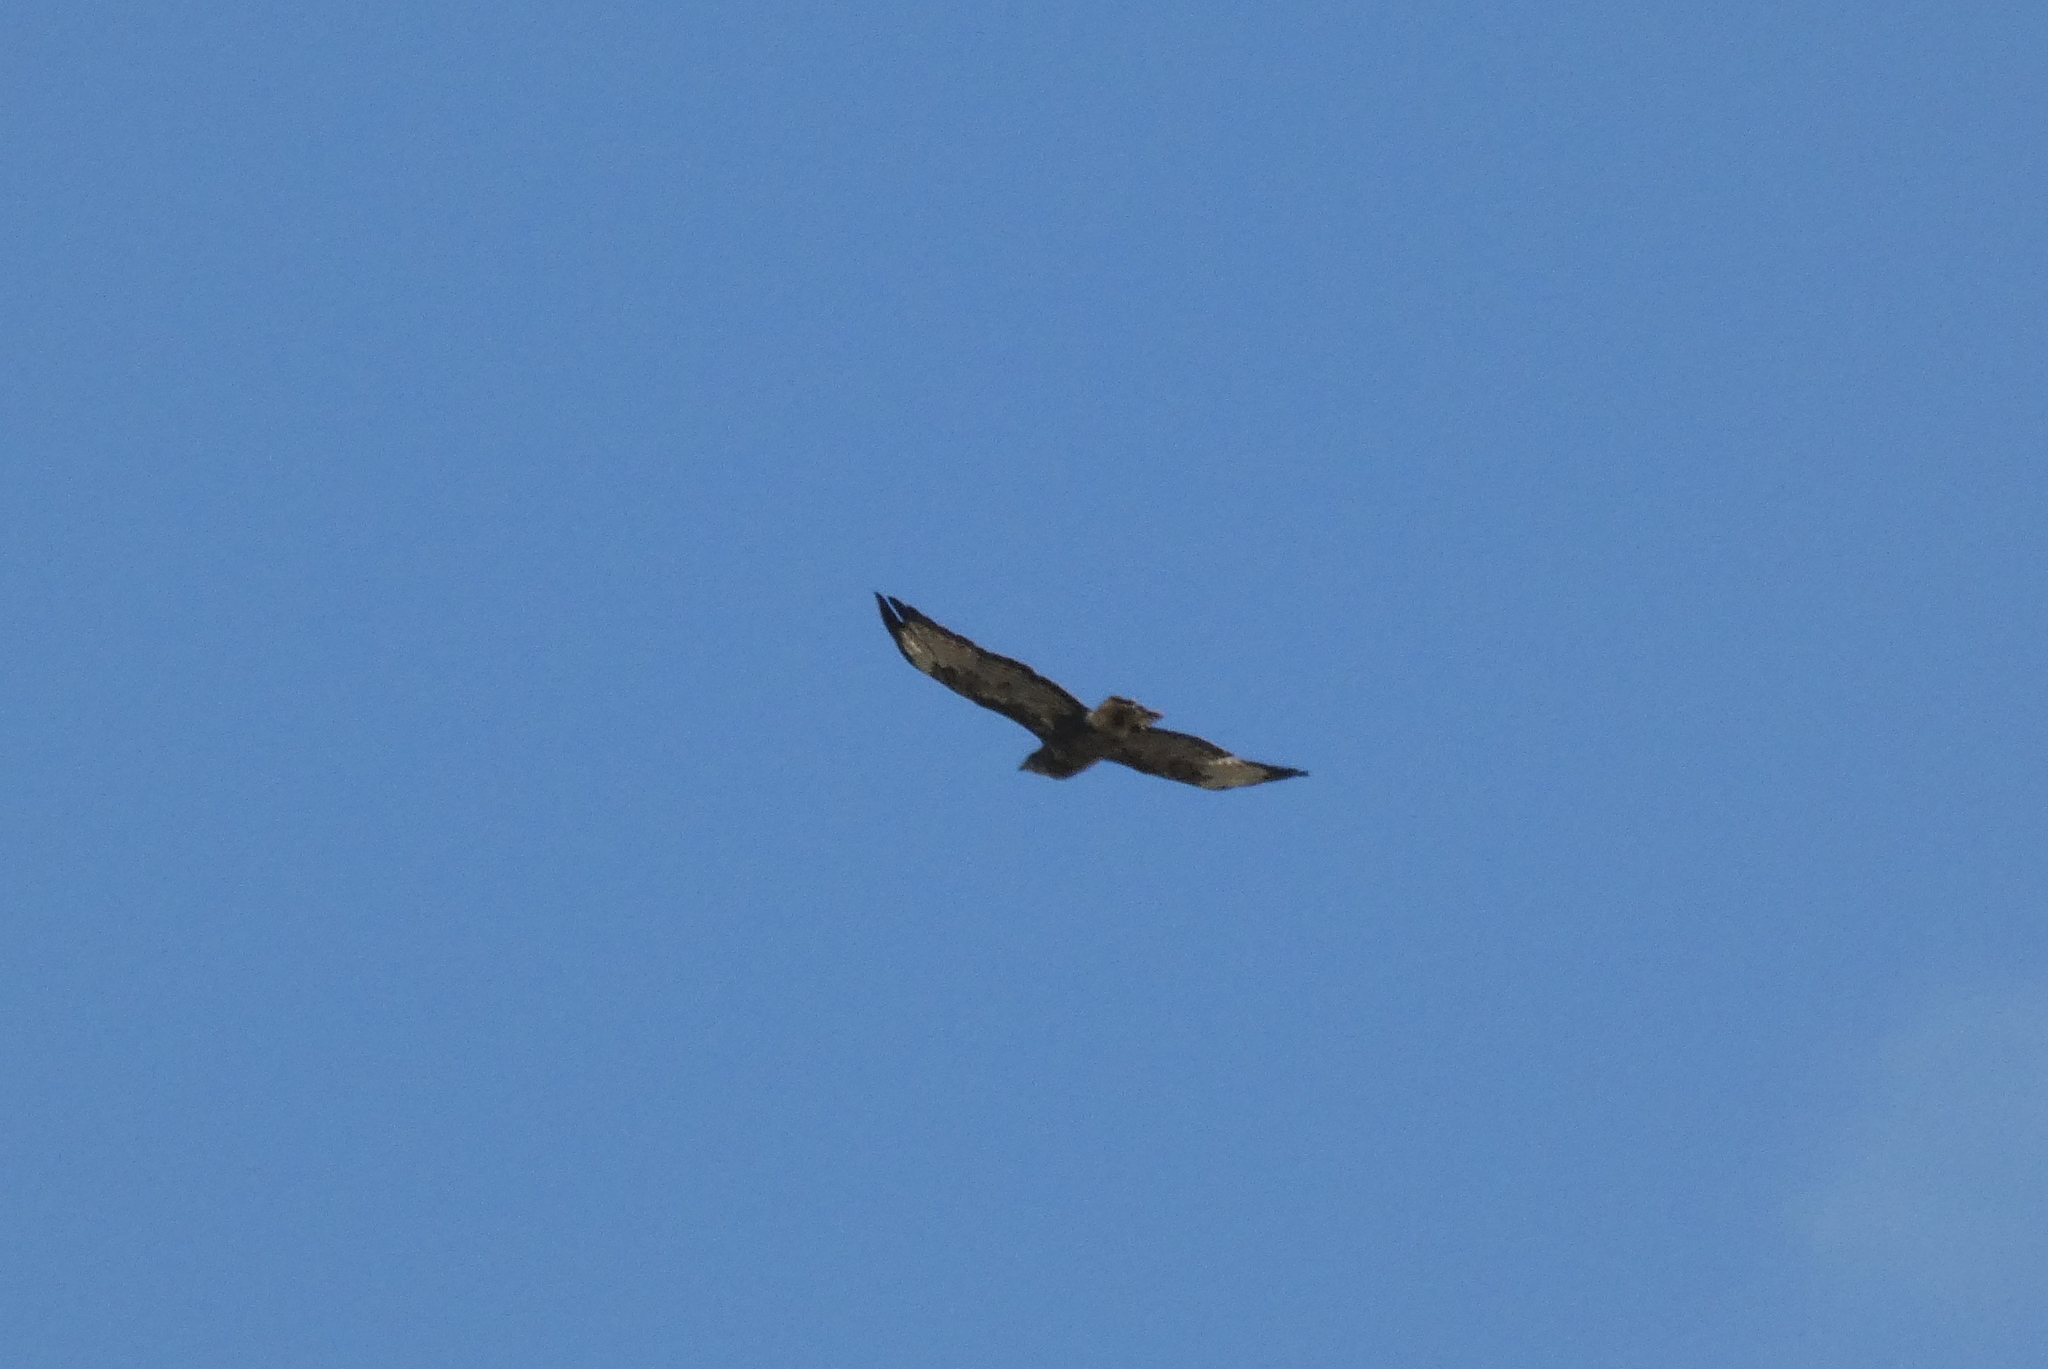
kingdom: Animalia
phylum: Chordata
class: Aves
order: Accipitriformes
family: Accipitridae
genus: Buteo
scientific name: Buteo buteo
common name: Common buzzard
